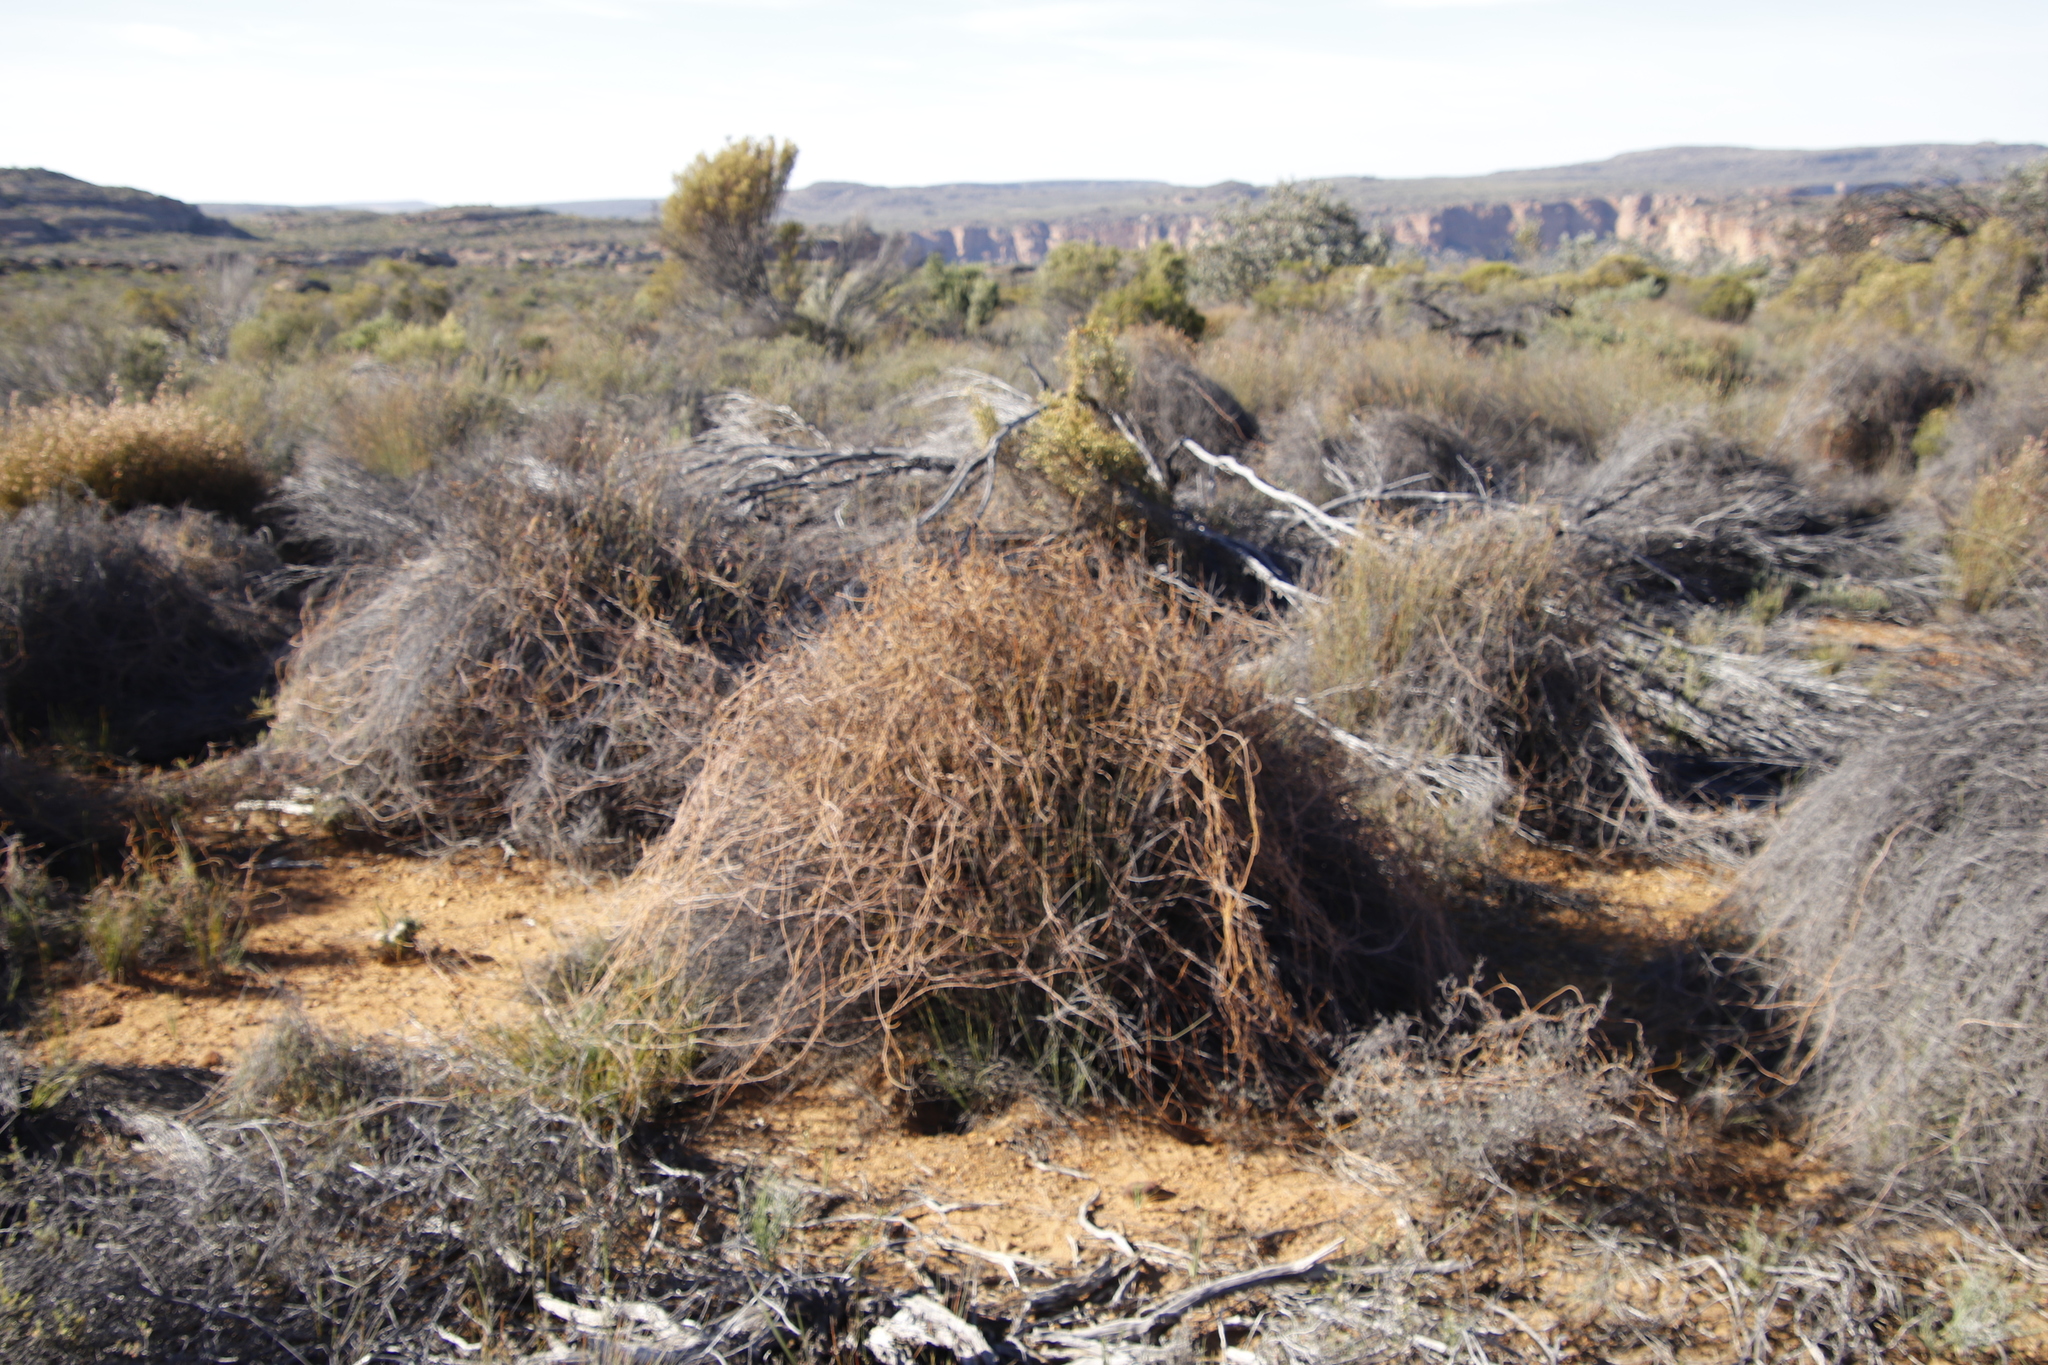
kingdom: Plantae
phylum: Tracheophyta
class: Magnoliopsida
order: Laurales
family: Lauraceae
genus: Cassytha
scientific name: Cassytha ciliolata
